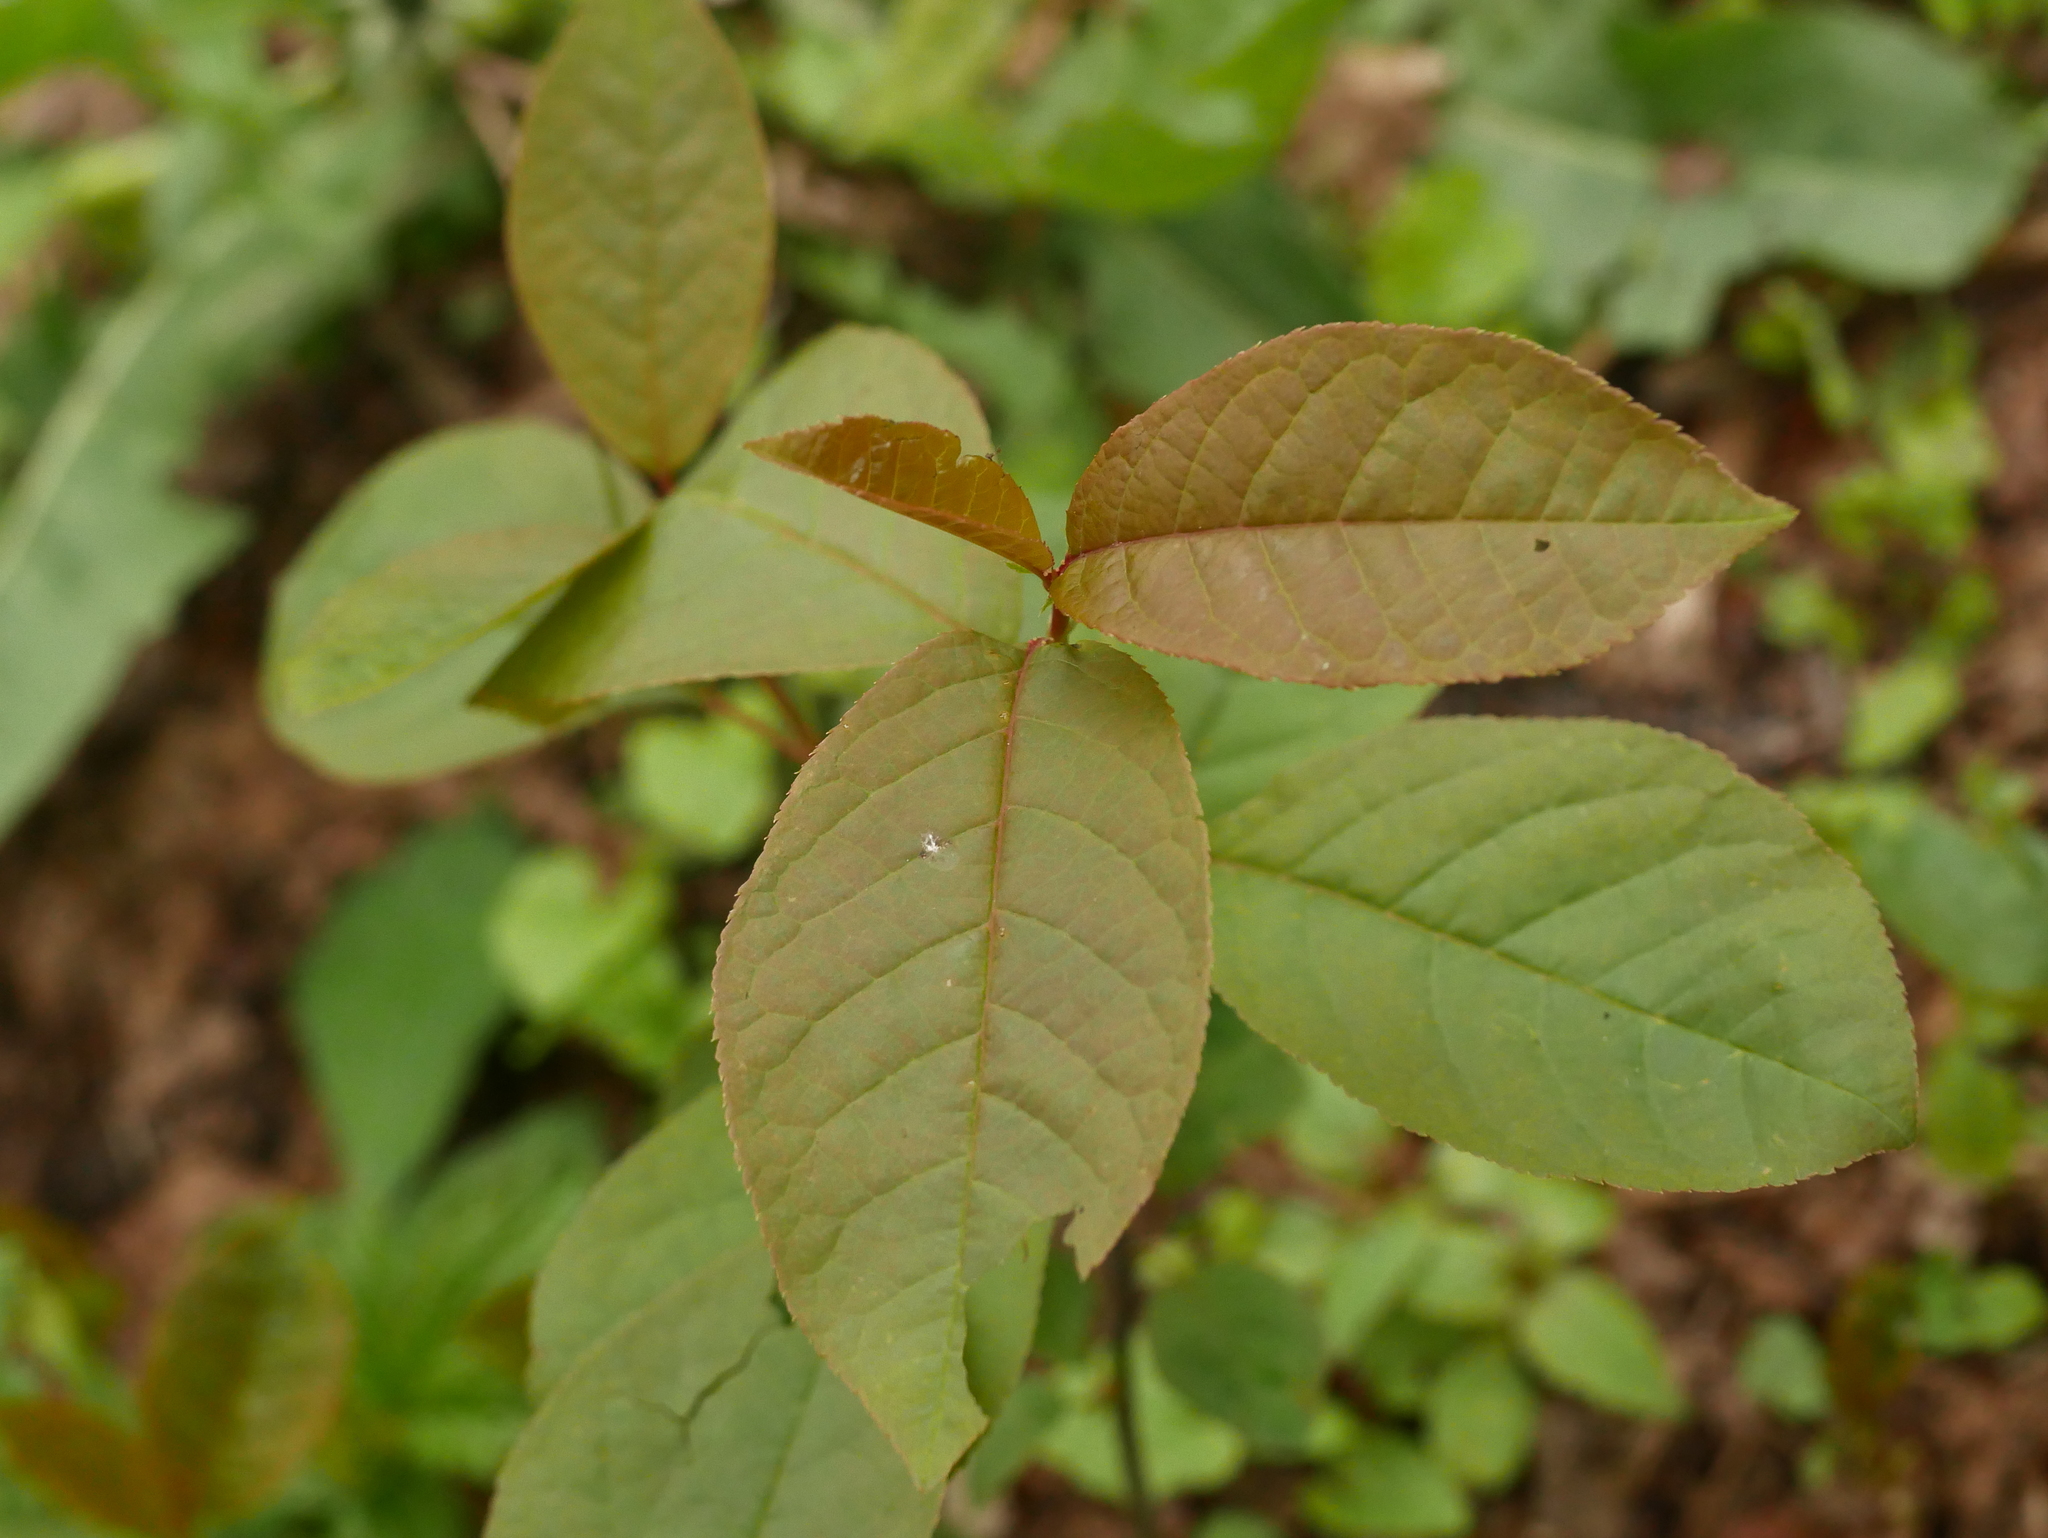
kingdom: Plantae
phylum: Tracheophyta
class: Magnoliopsida
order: Rosales
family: Rosaceae
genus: Prunus
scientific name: Prunus padus
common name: Bird cherry
